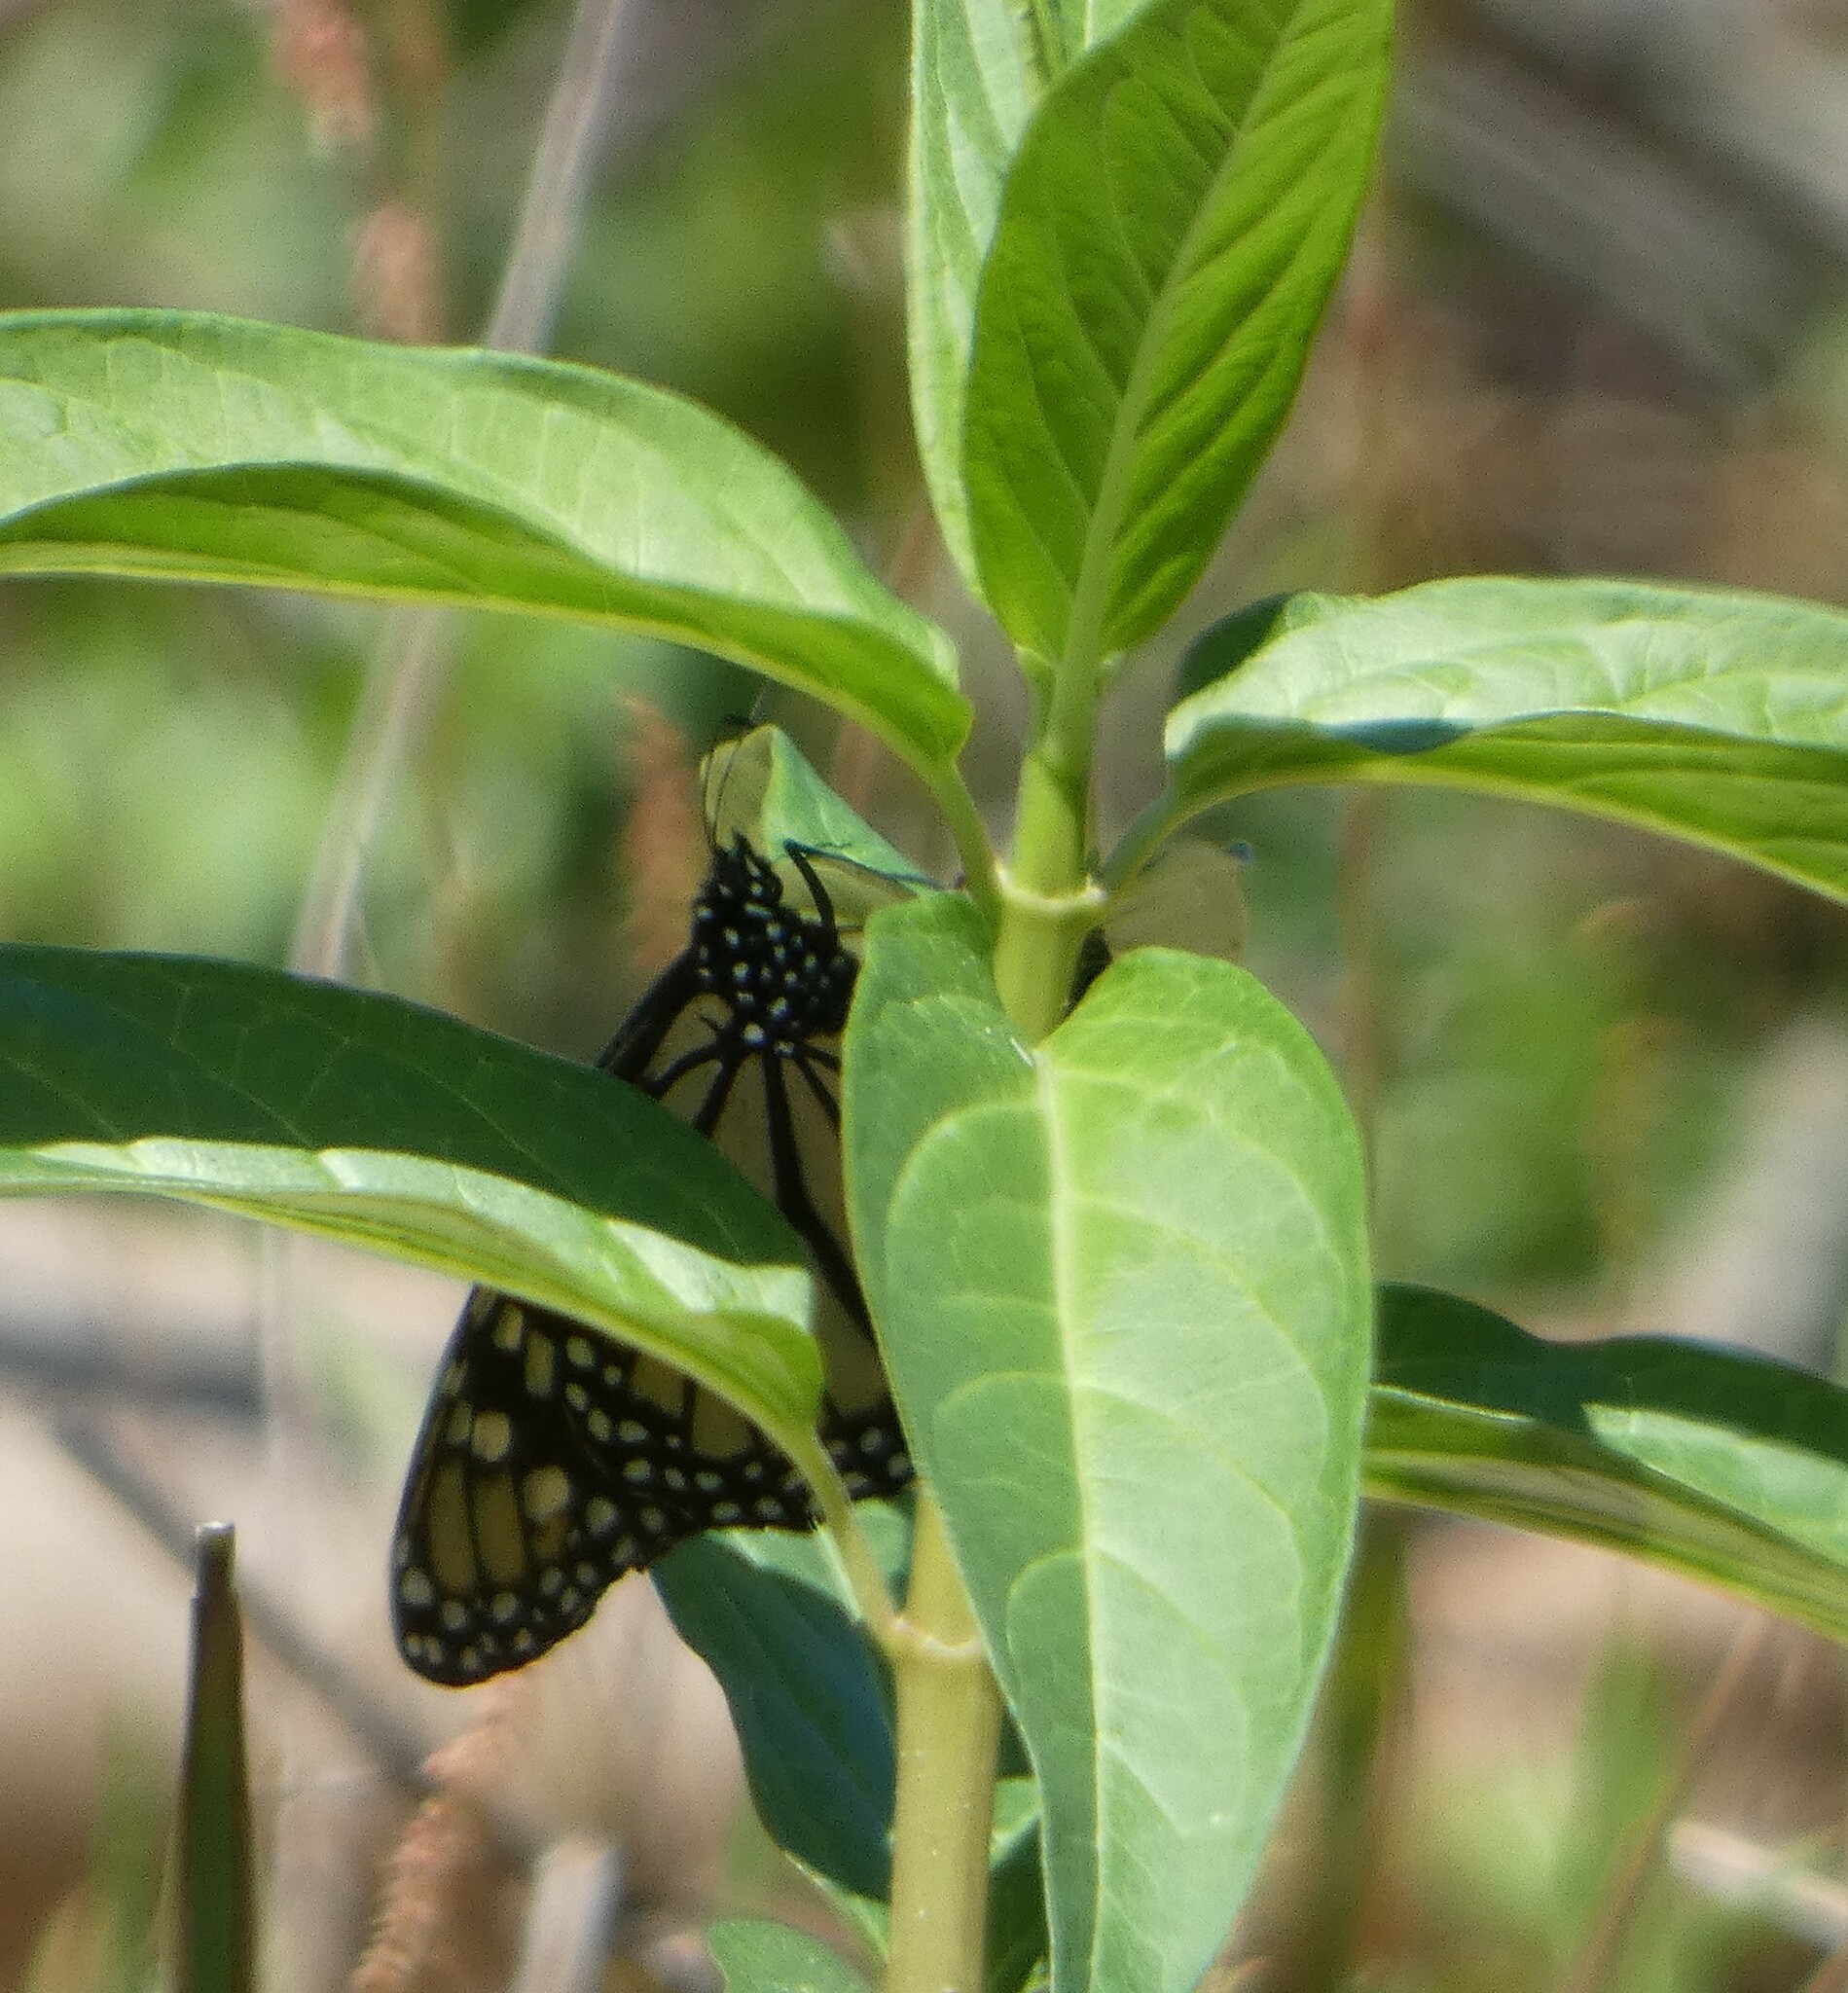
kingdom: Animalia
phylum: Arthropoda
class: Insecta
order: Lepidoptera
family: Nymphalidae
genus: Danaus
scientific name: Danaus plexippus
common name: Monarch
